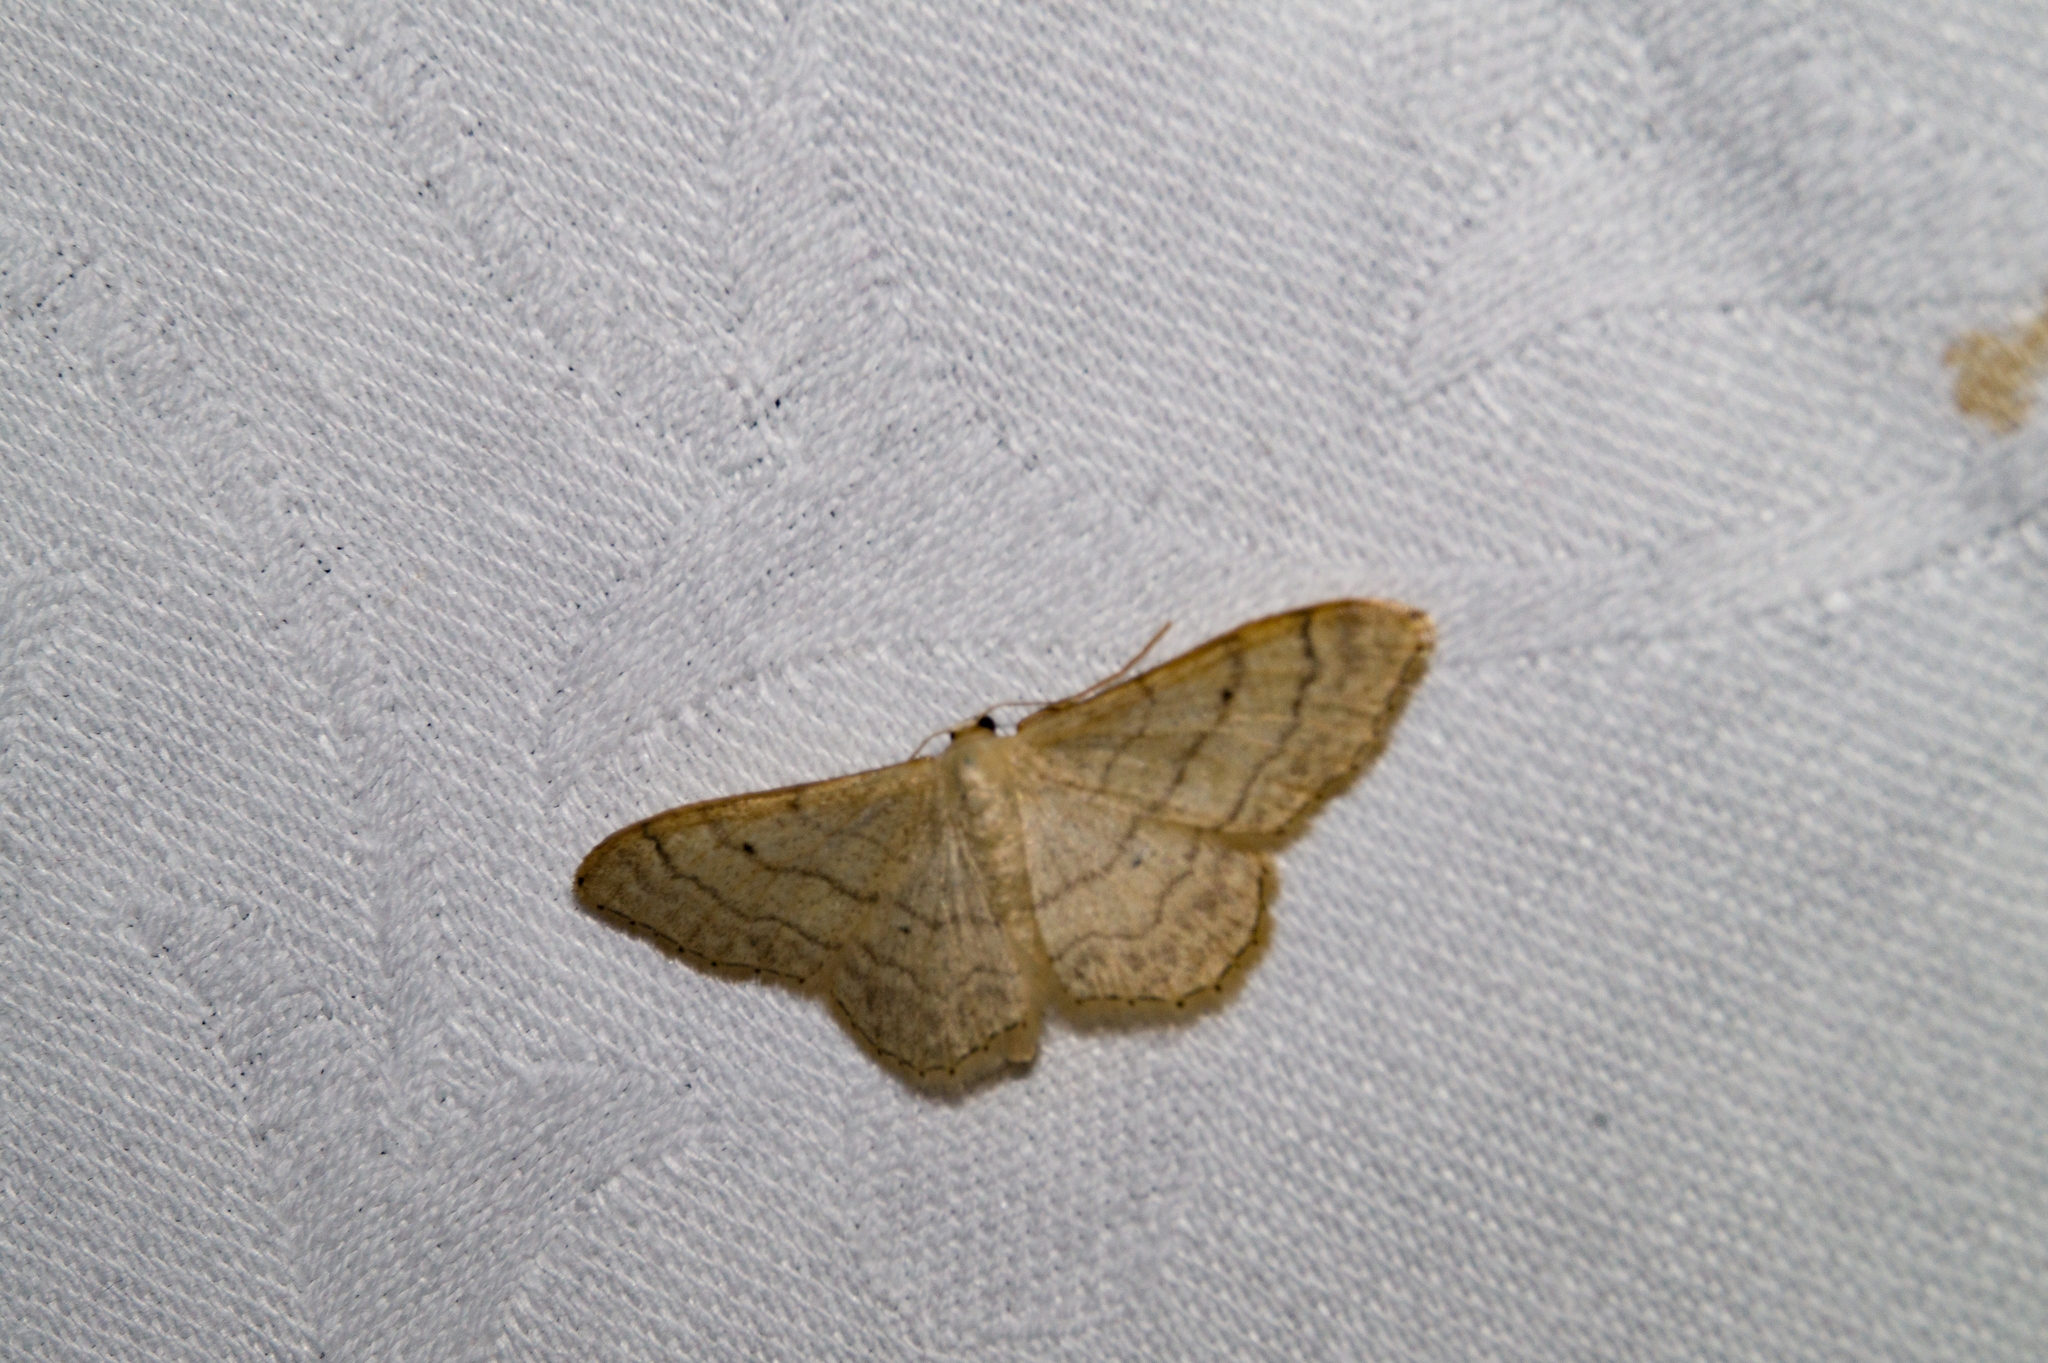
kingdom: Animalia
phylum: Arthropoda
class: Insecta
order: Lepidoptera
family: Geometridae
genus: Idaea
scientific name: Idaea aversata
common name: Riband wave
